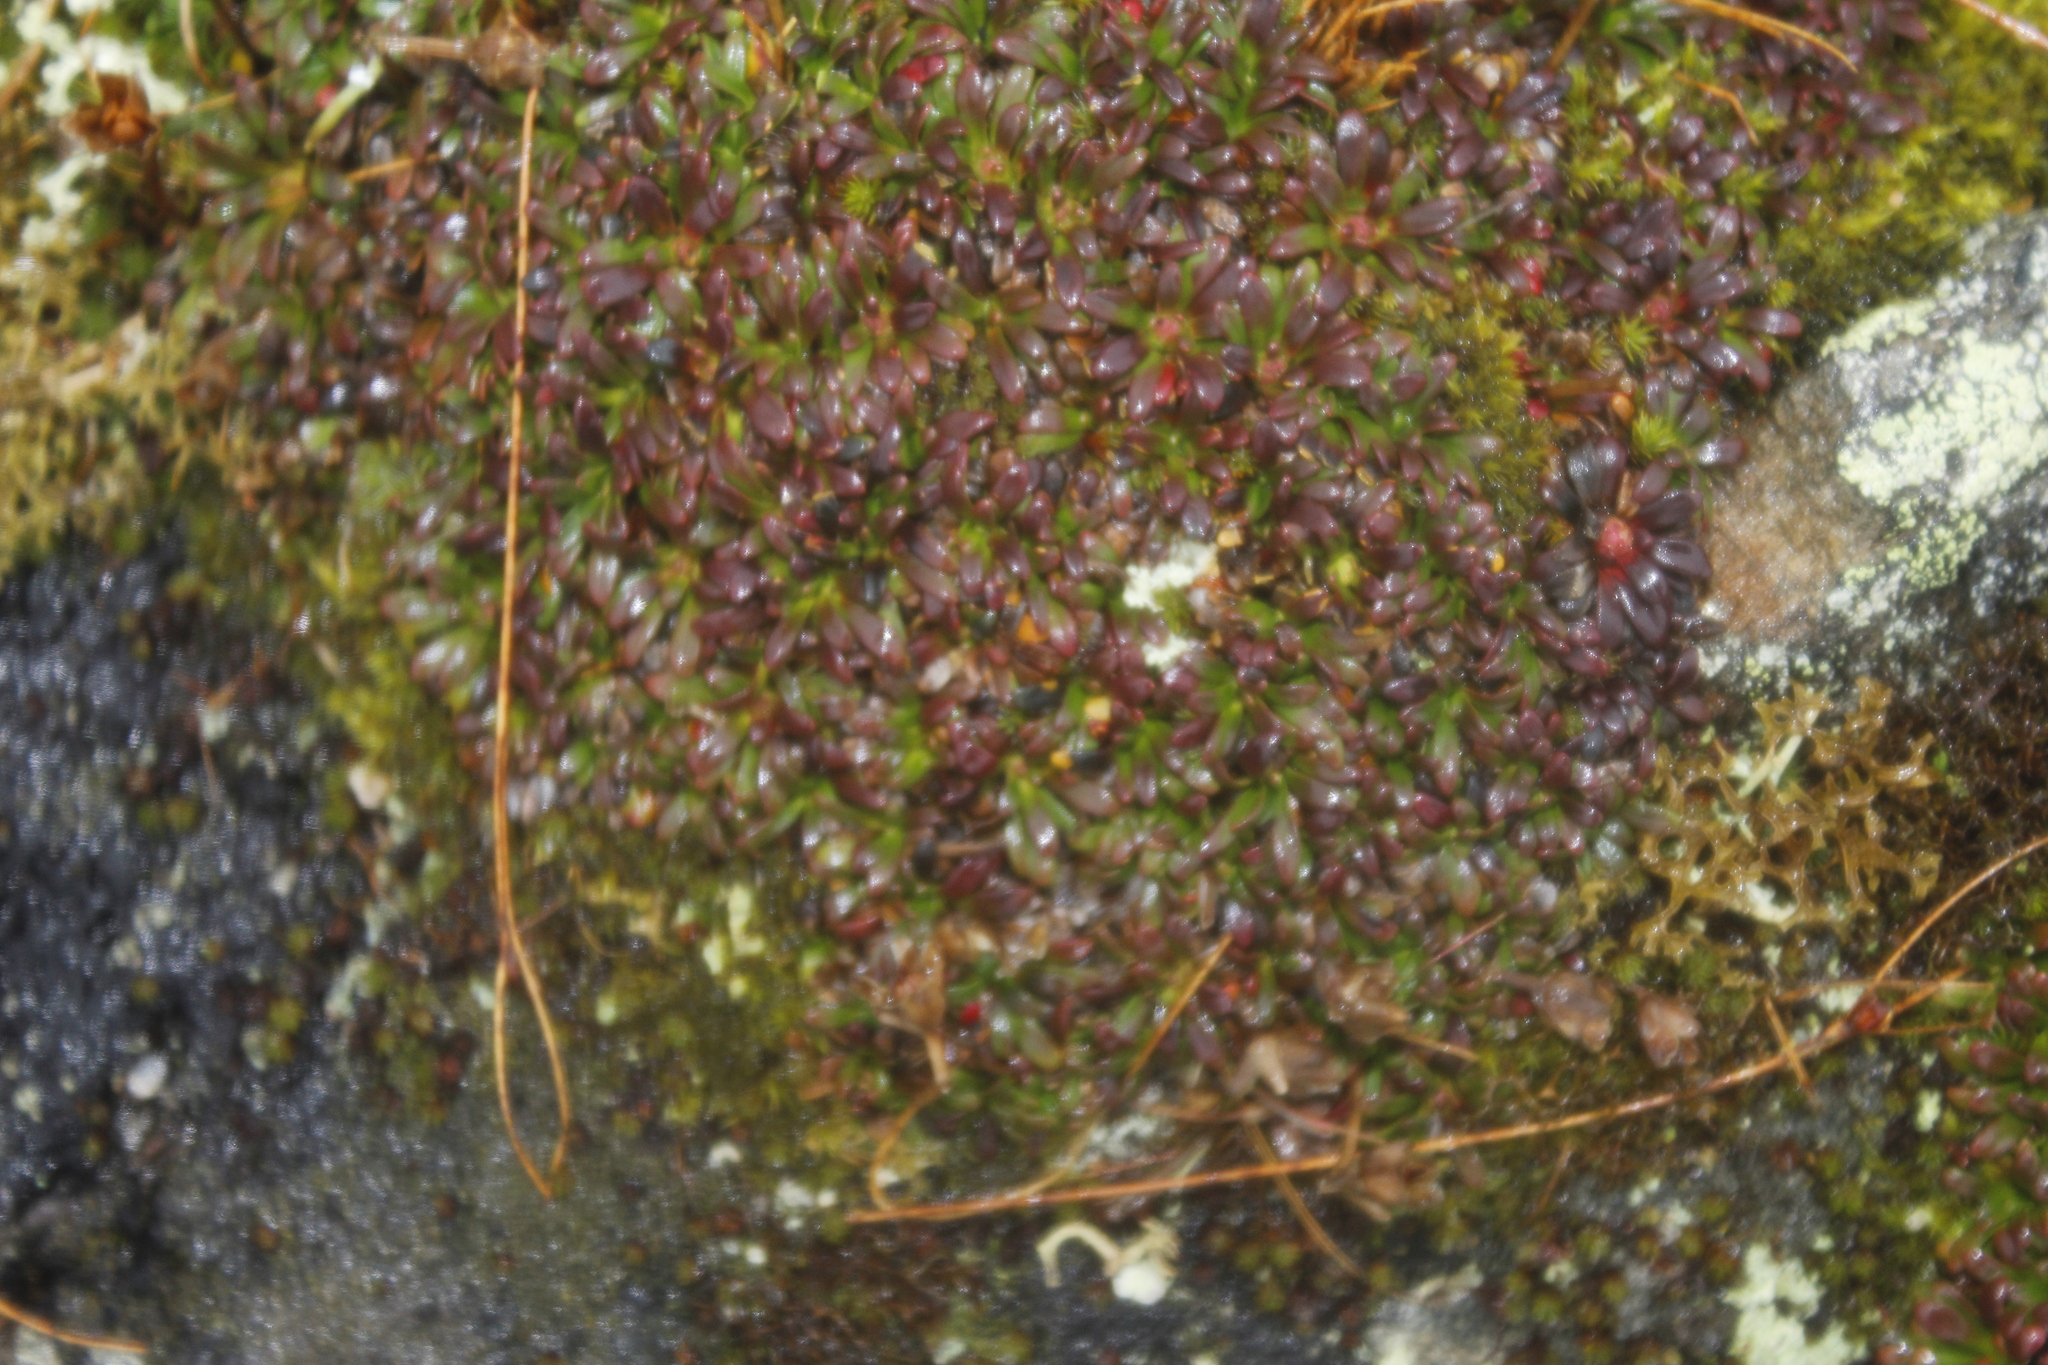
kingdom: Plantae
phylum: Tracheophyta
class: Magnoliopsida
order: Ericales
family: Diapensiaceae
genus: Diapensia
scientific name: Diapensia lapponica
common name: Diapensia
